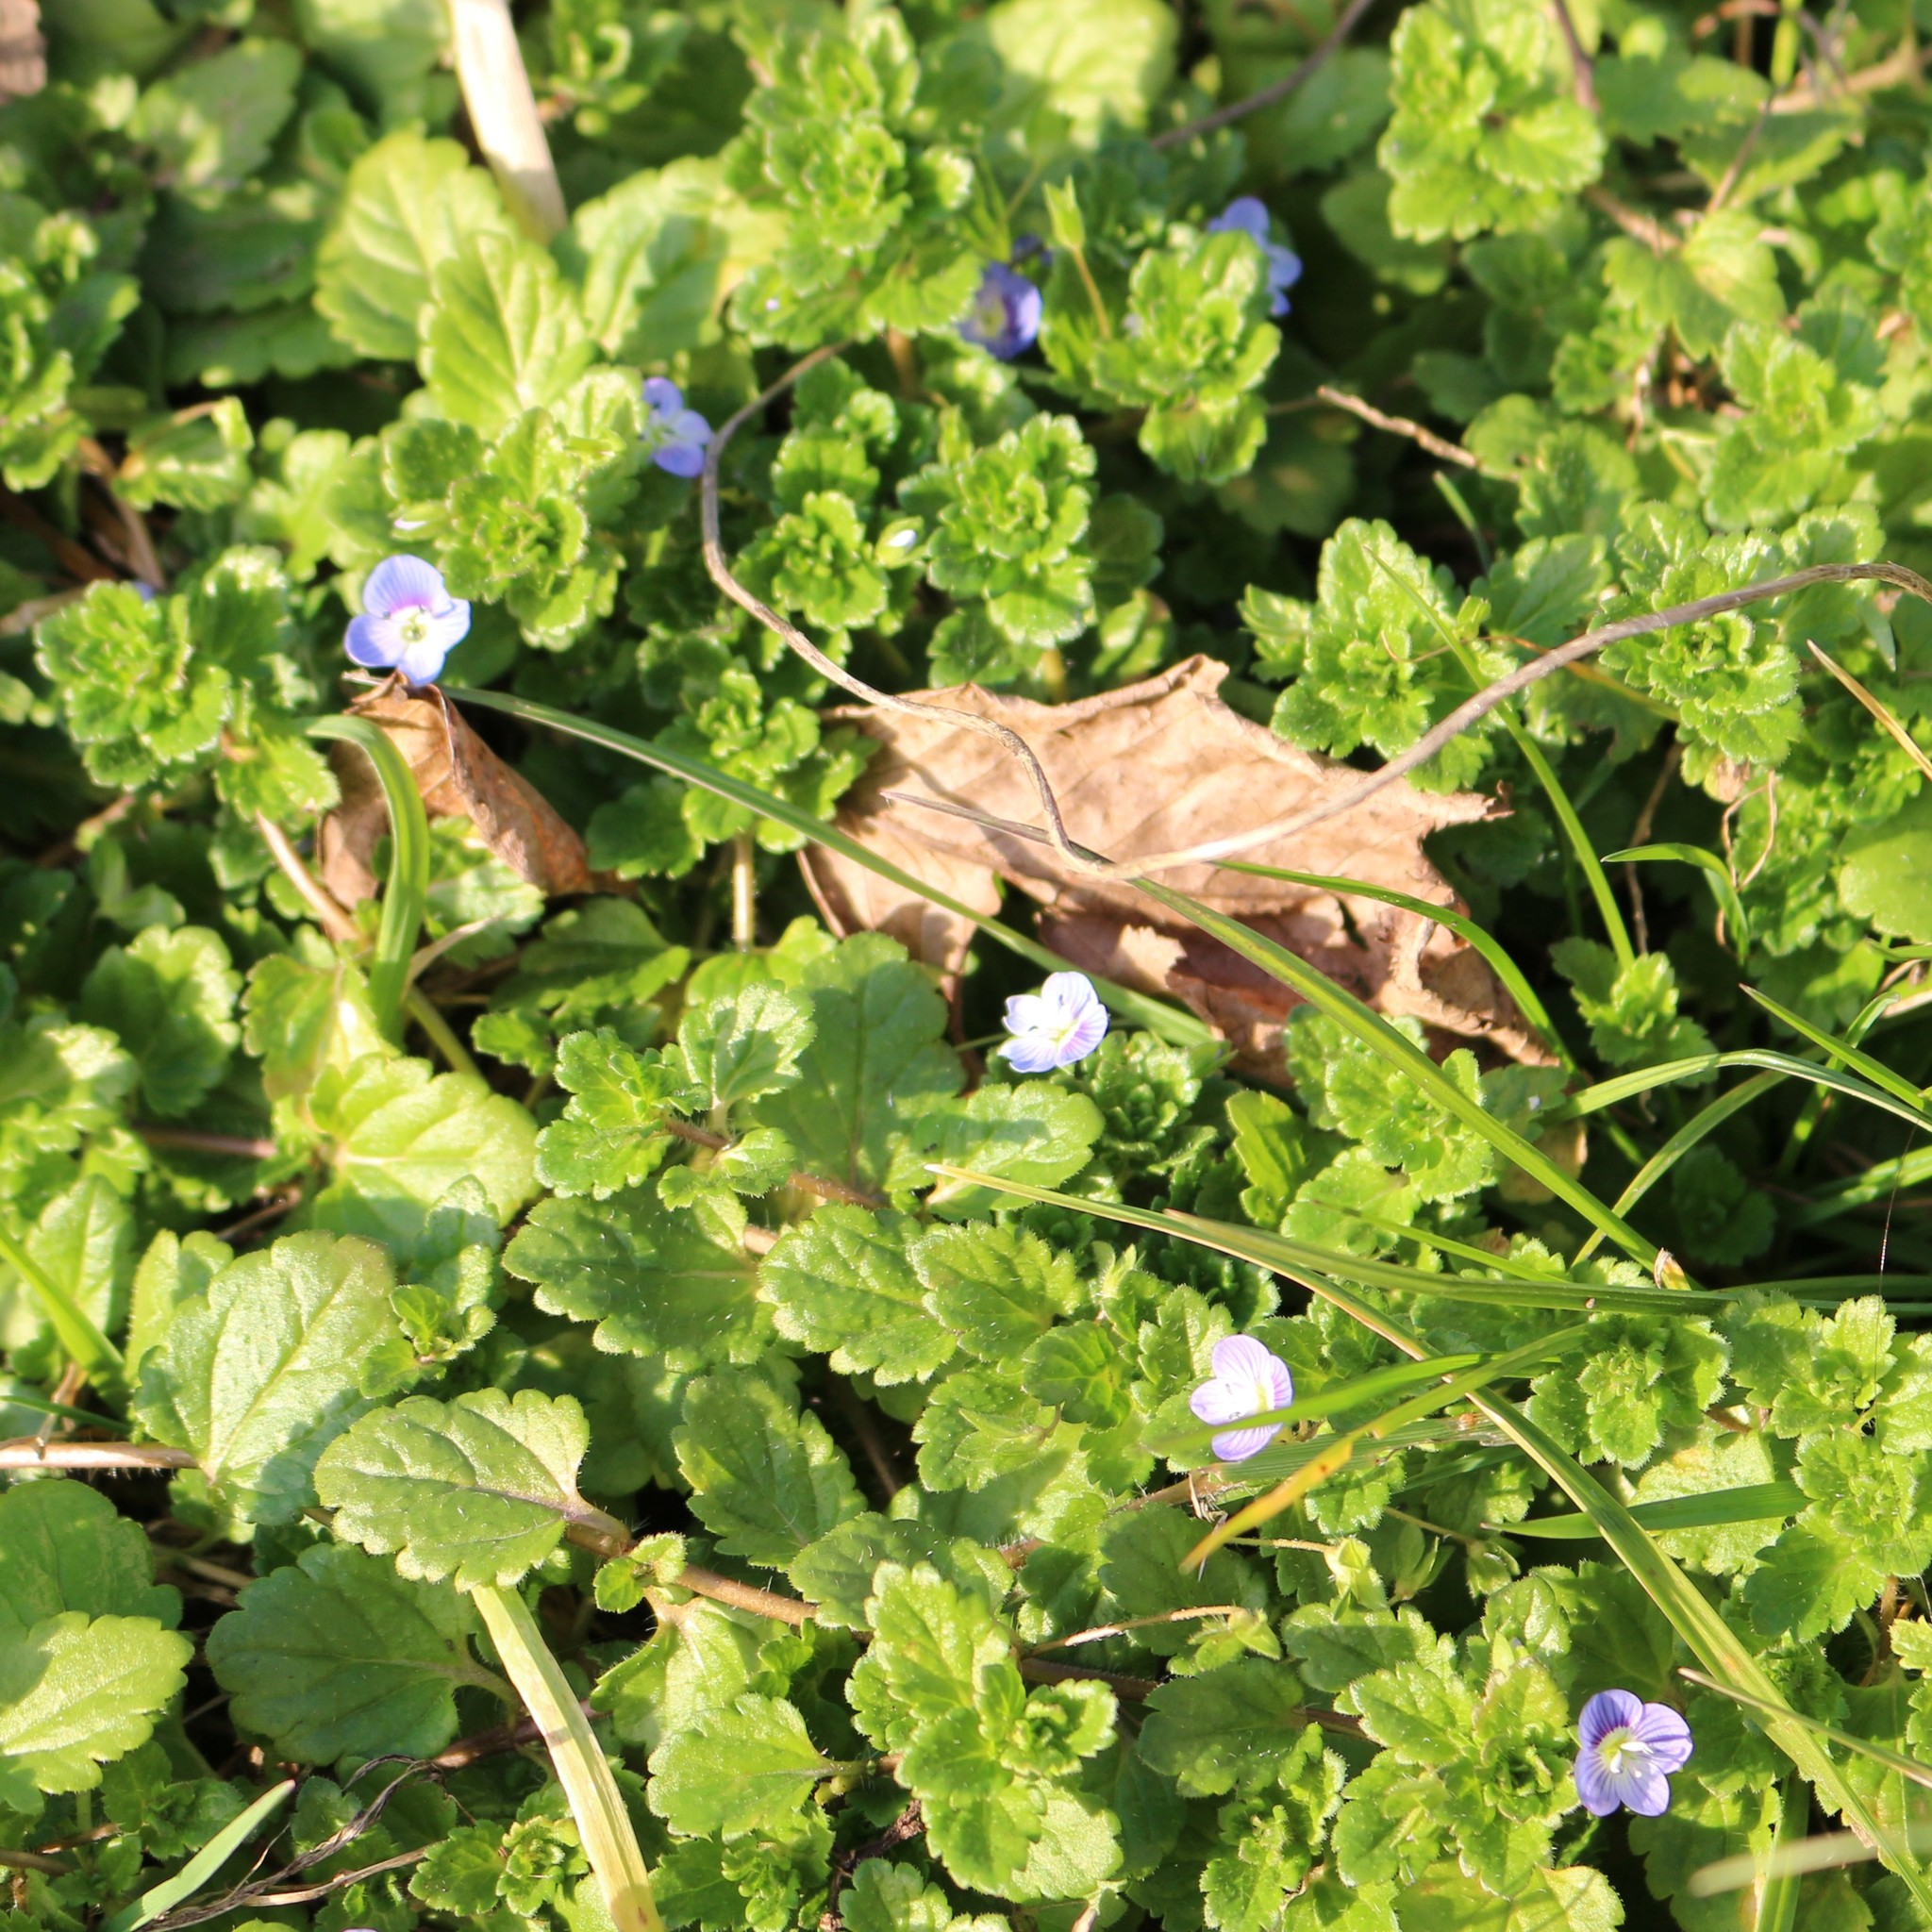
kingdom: Plantae
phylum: Tracheophyta
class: Magnoliopsida
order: Lamiales
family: Plantaginaceae
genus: Veronica
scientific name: Veronica persica
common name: Common field-speedwell
